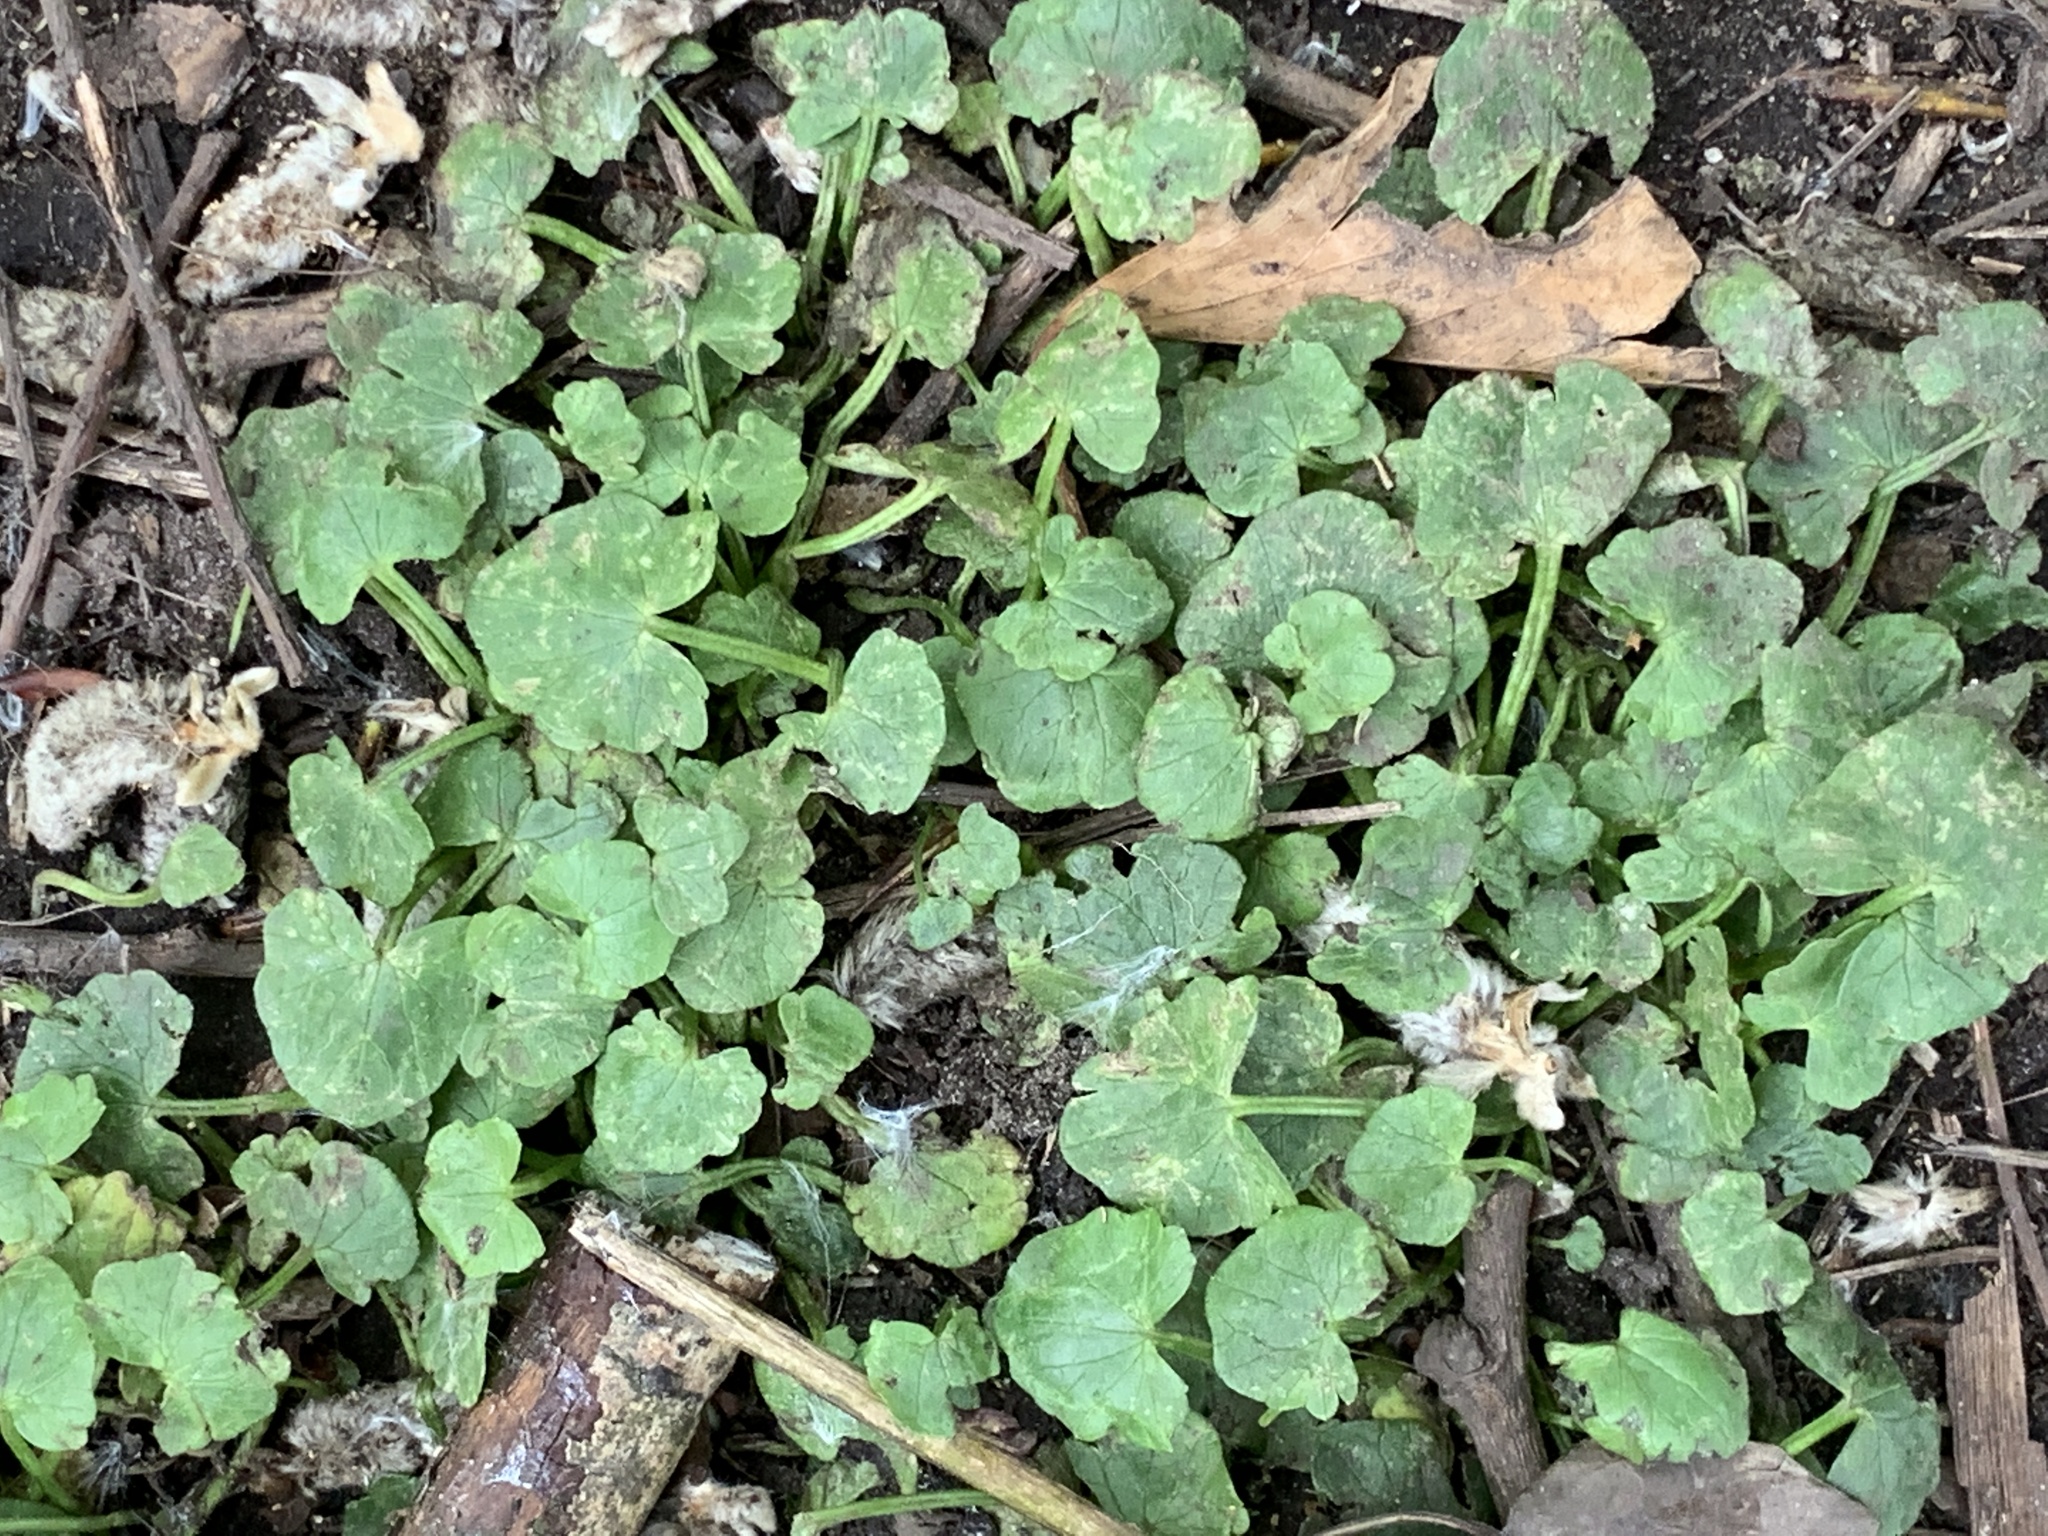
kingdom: Plantae
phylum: Tracheophyta
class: Magnoliopsida
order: Ranunculales
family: Ranunculaceae
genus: Ficaria
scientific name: Ficaria verna
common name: Lesser celandine
